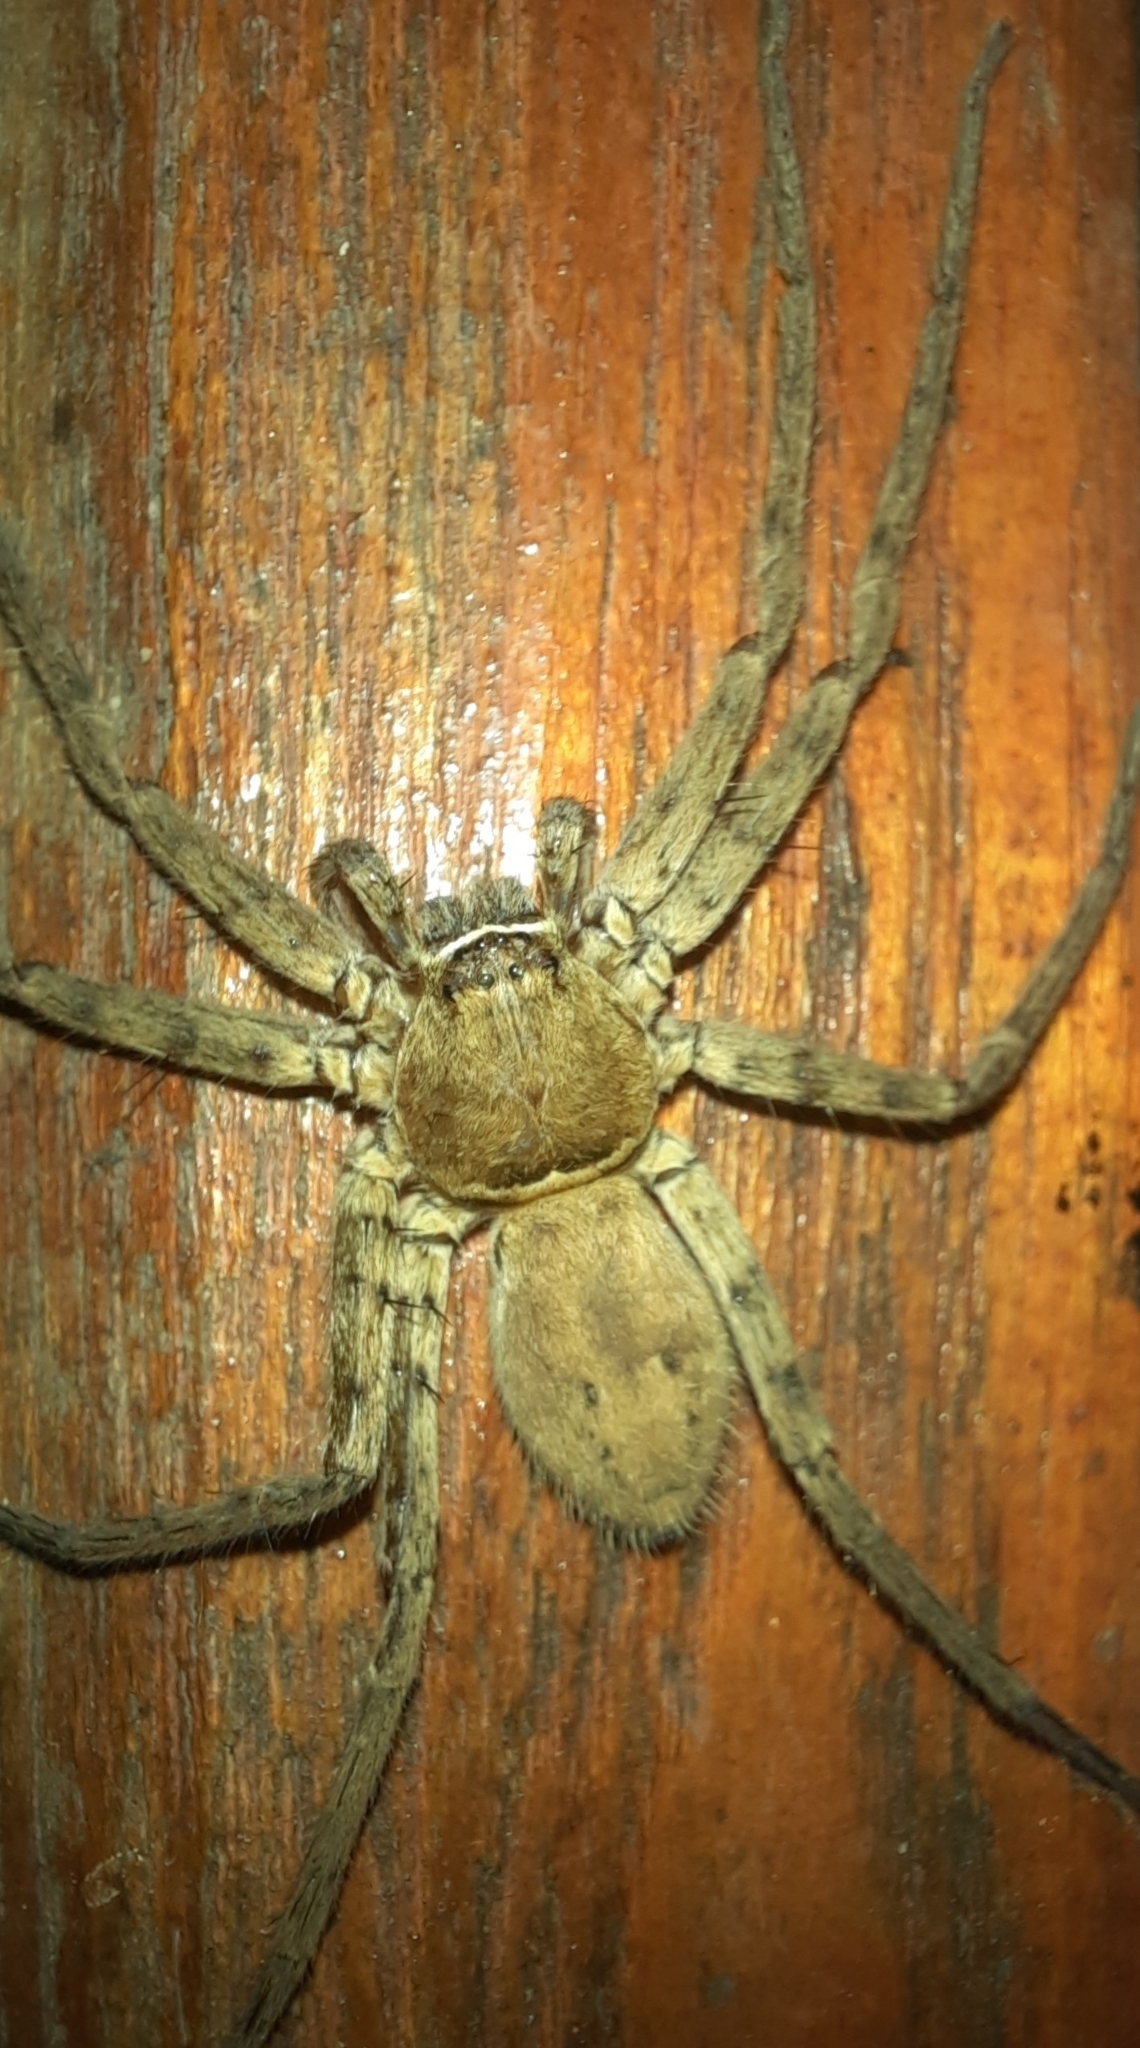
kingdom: Animalia
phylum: Arthropoda
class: Arachnida
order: Araneae
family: Sparassidae
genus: Heteropoda
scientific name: Heteropoda venatoria
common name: Huntsman spider
